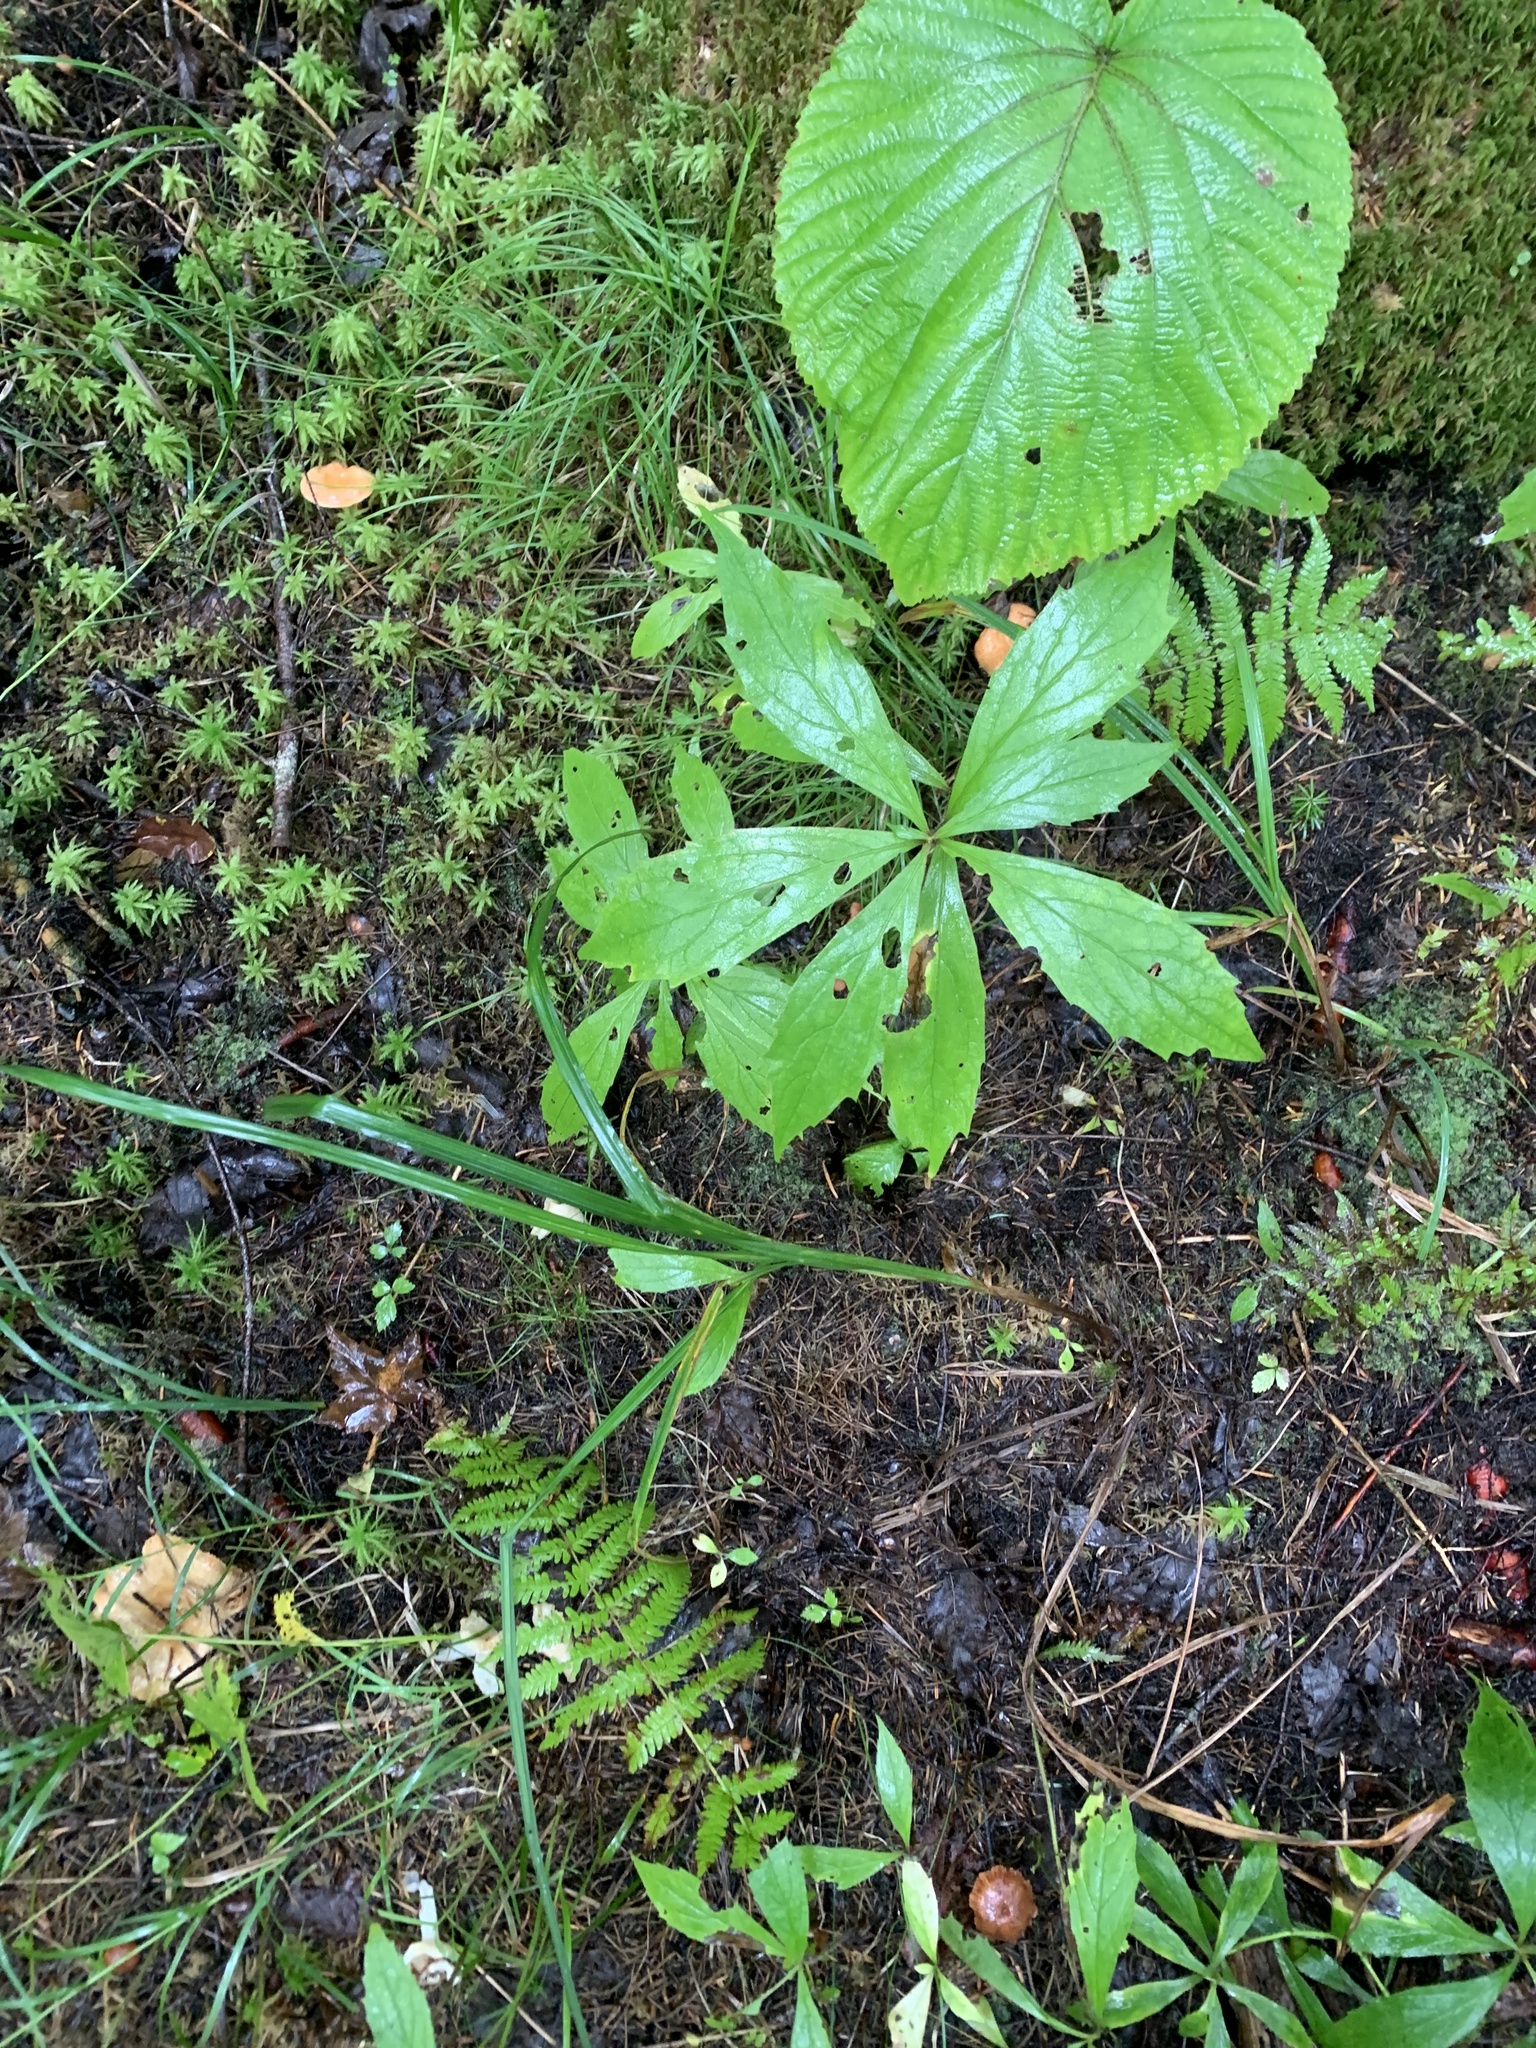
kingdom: Plantae
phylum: Tracheophyta
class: Magnoliopsida
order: Asterales
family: Asteraceae
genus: Oclemena
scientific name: Oclemena acuminata
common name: Mountain aster
